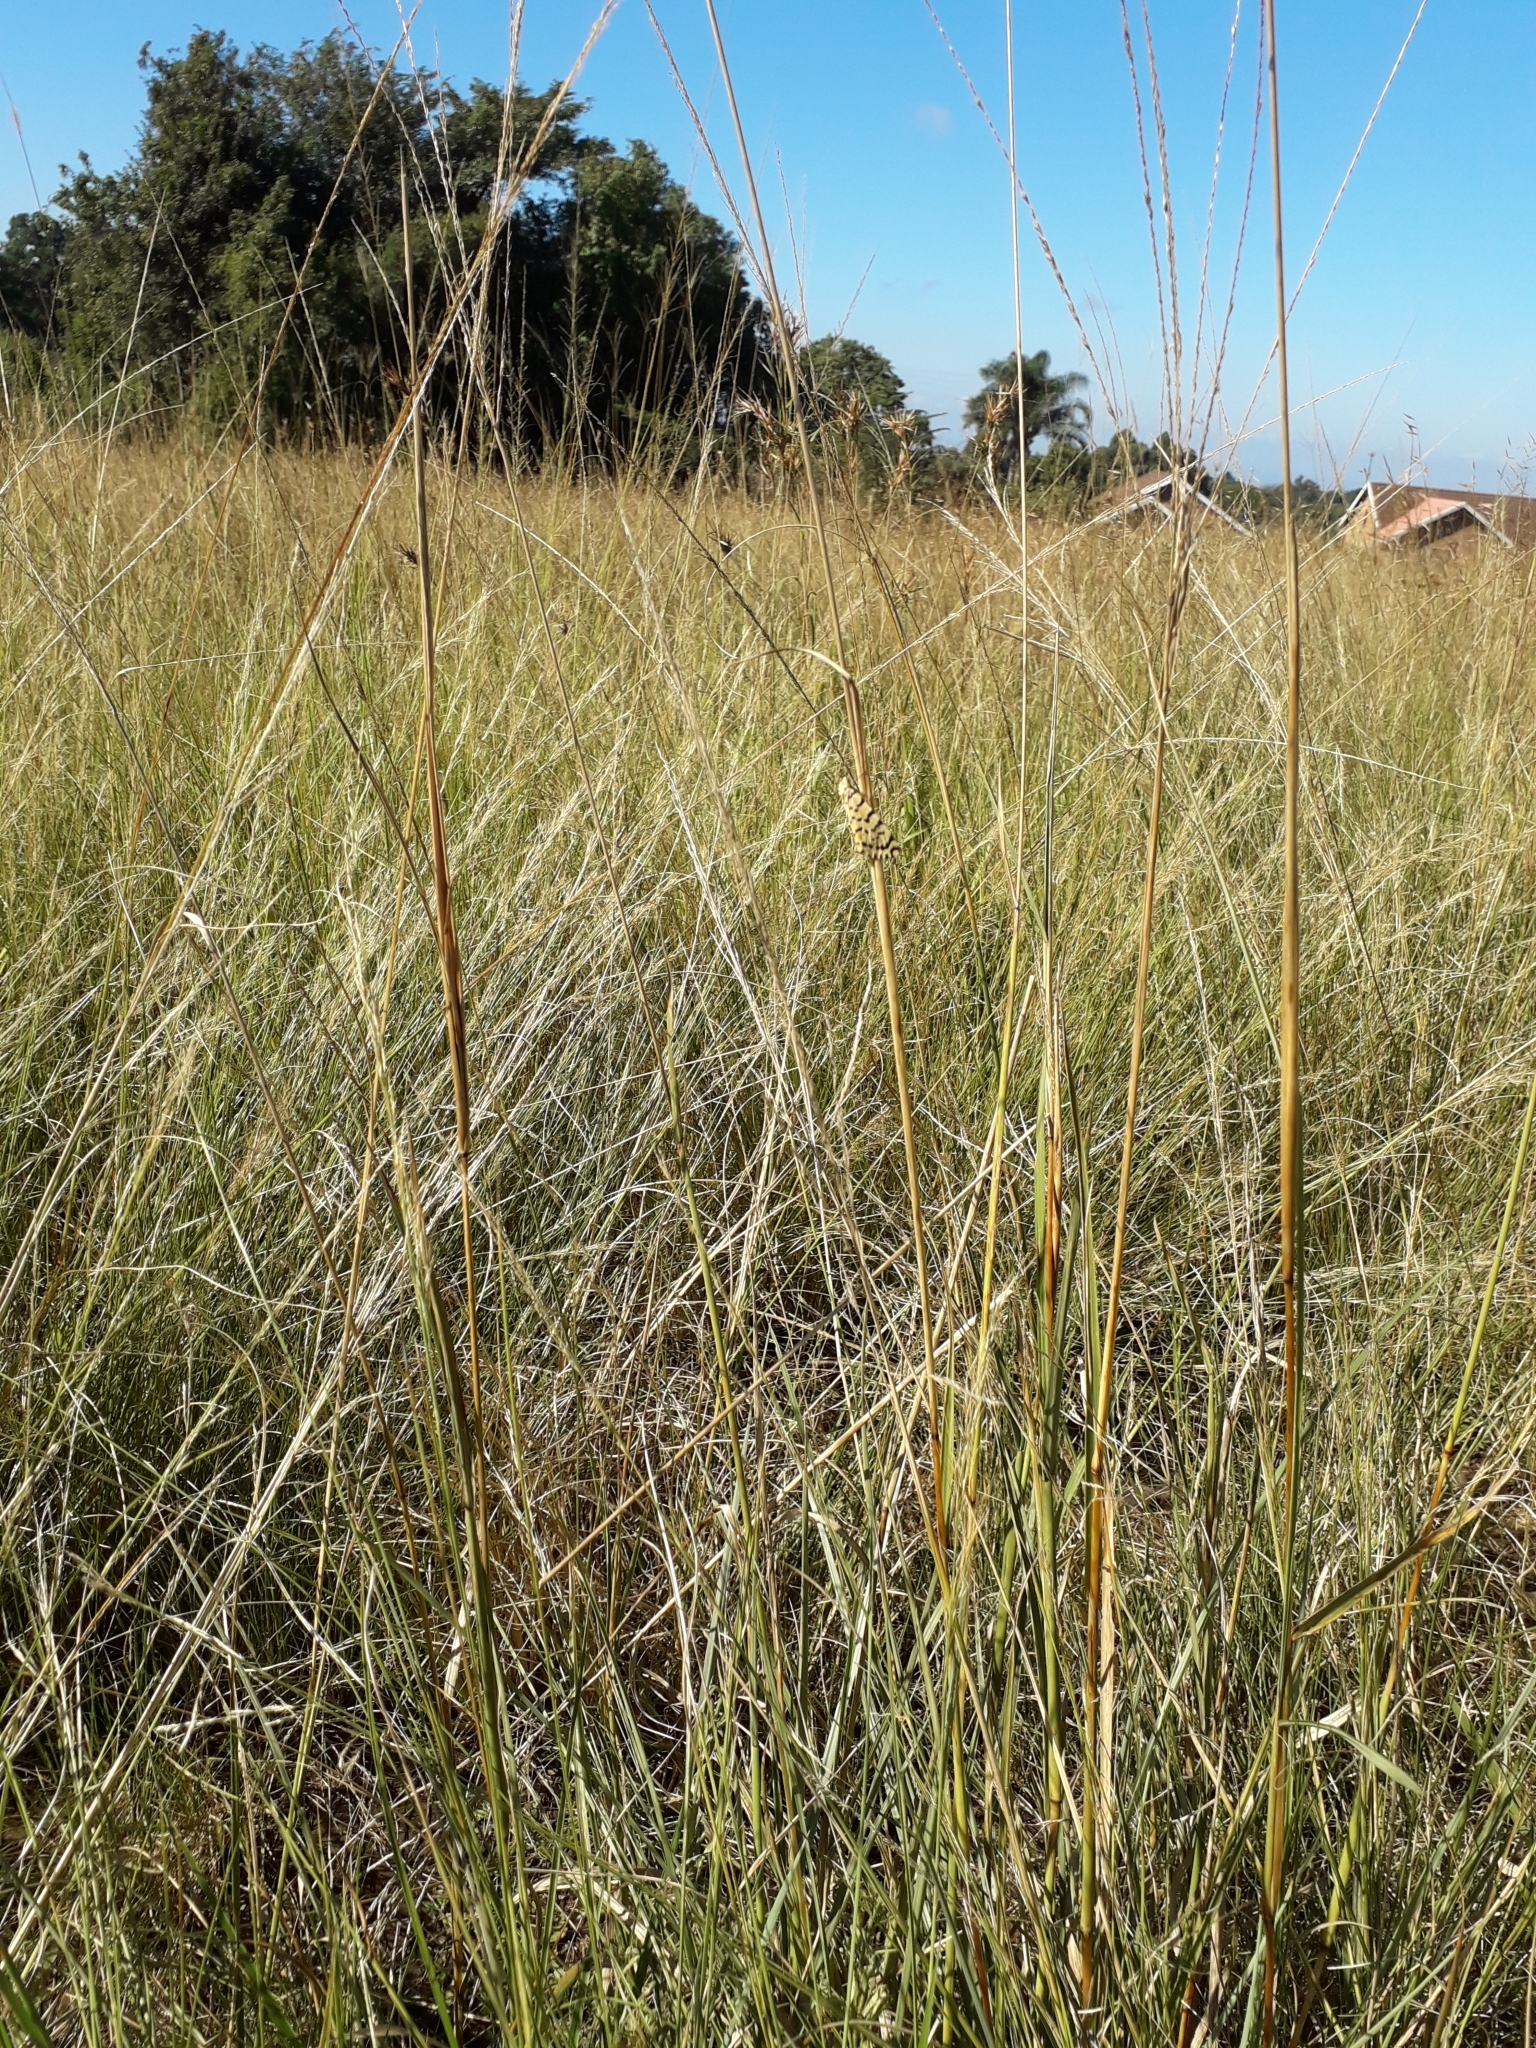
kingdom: Animalia
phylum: Arthropoda
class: Insecta
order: Lepidoptera
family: Erebidae
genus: Argina
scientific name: Argina Alytarchia amanda
